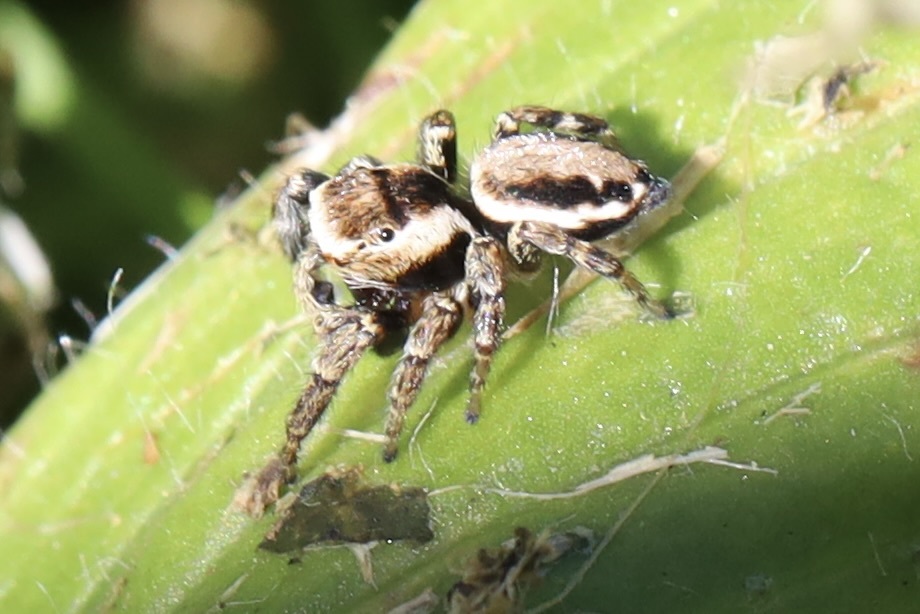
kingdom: Animalia
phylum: Arthropoda
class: Arachnida
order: Araneae
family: Salticidae
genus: Evarcha
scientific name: Evarcha proszynskii
